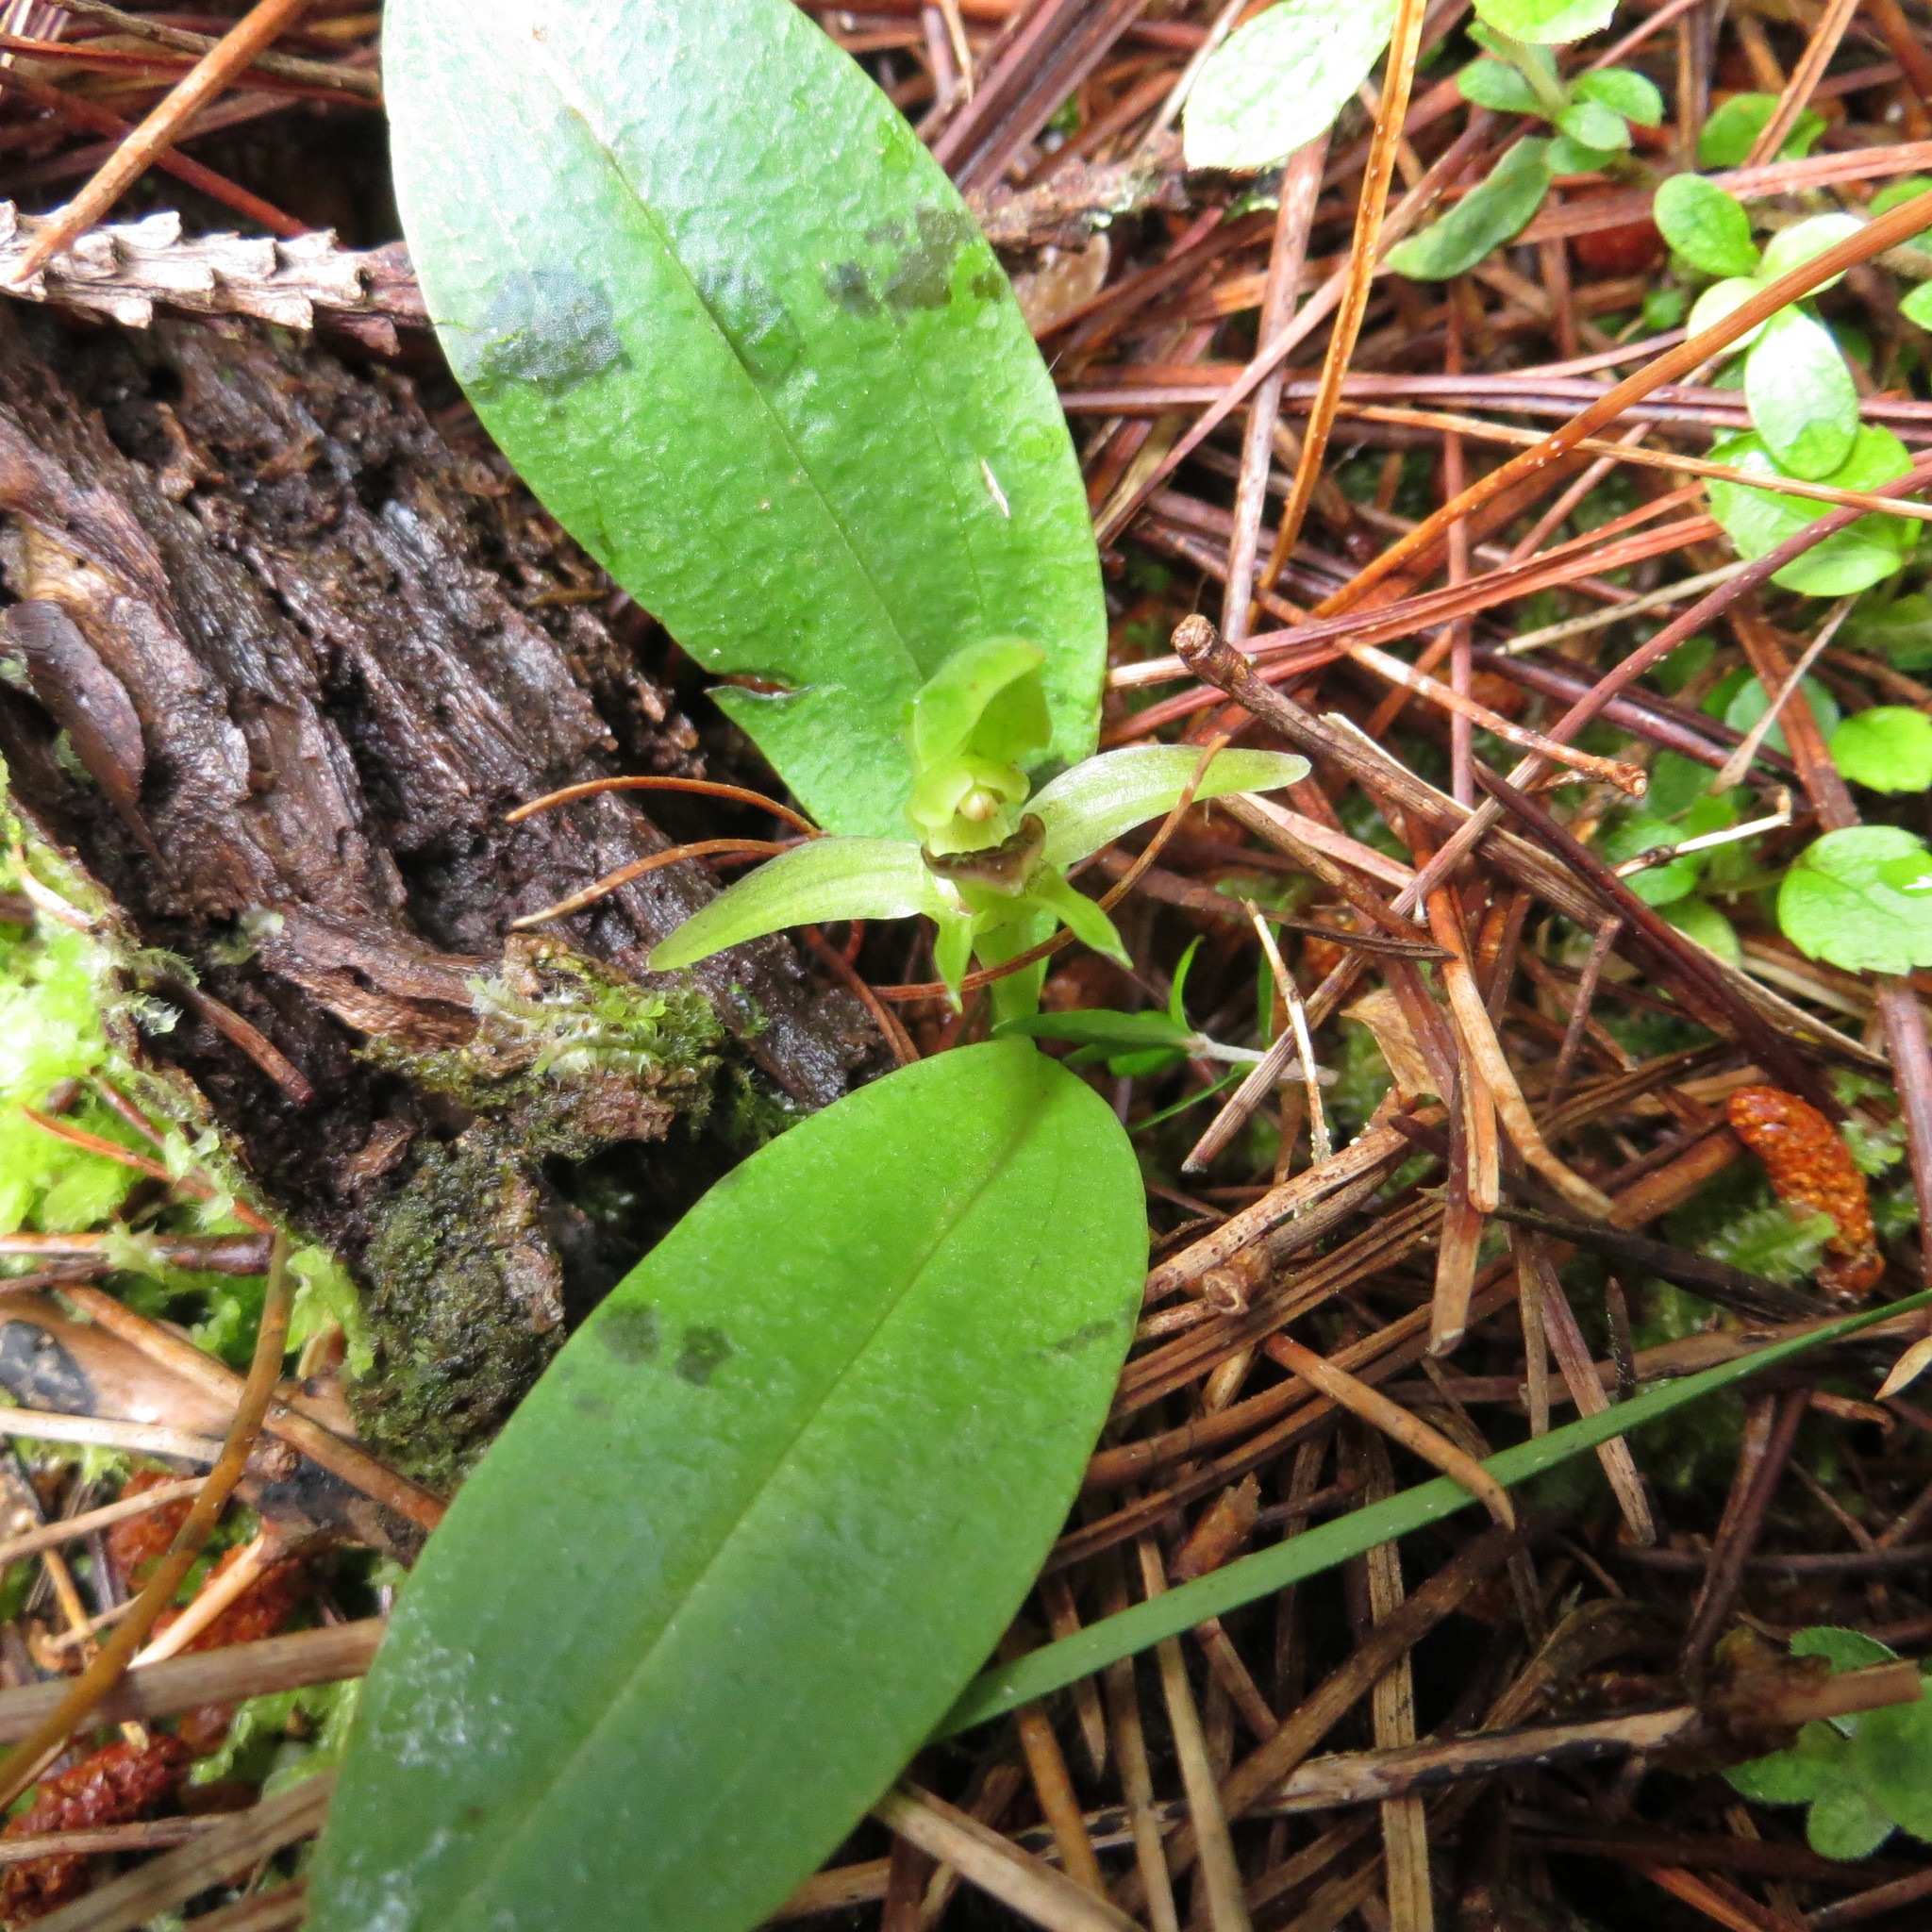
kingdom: Plantae
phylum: Tracheophyta
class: Liliopsida
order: Asparagales
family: Orchidaceae
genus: Chiloglottis
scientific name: Chiloglottis cornuta
